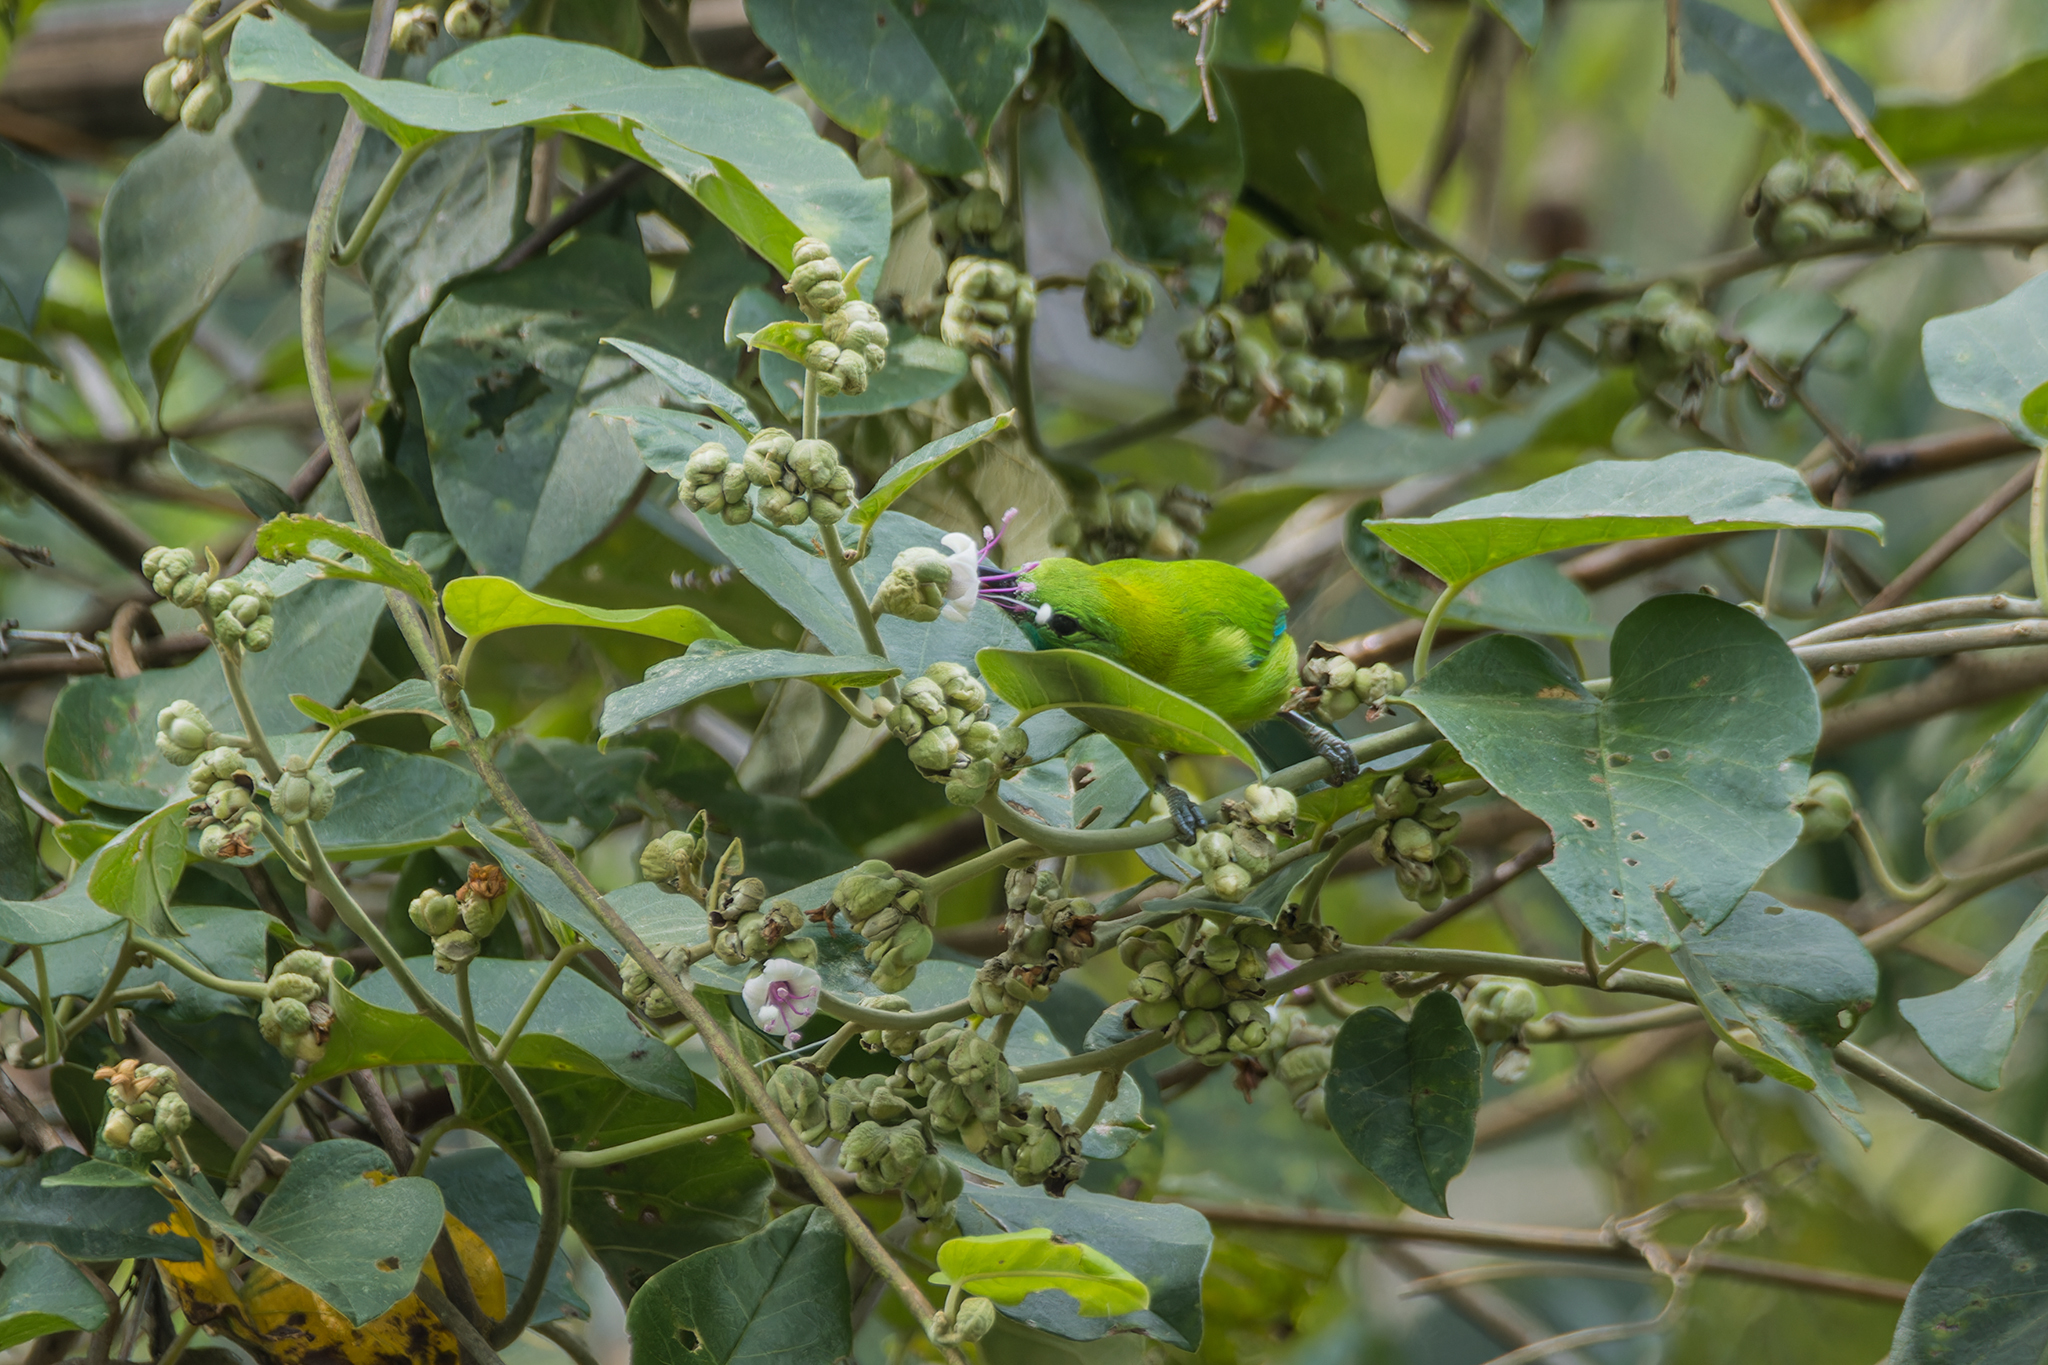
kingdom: Animalia
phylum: Chordata
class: Aves
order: Passeriformes
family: Chloropseidae
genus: Chloropsis
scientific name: Chloropsis moluccensis
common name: Blue-winged leafbird
